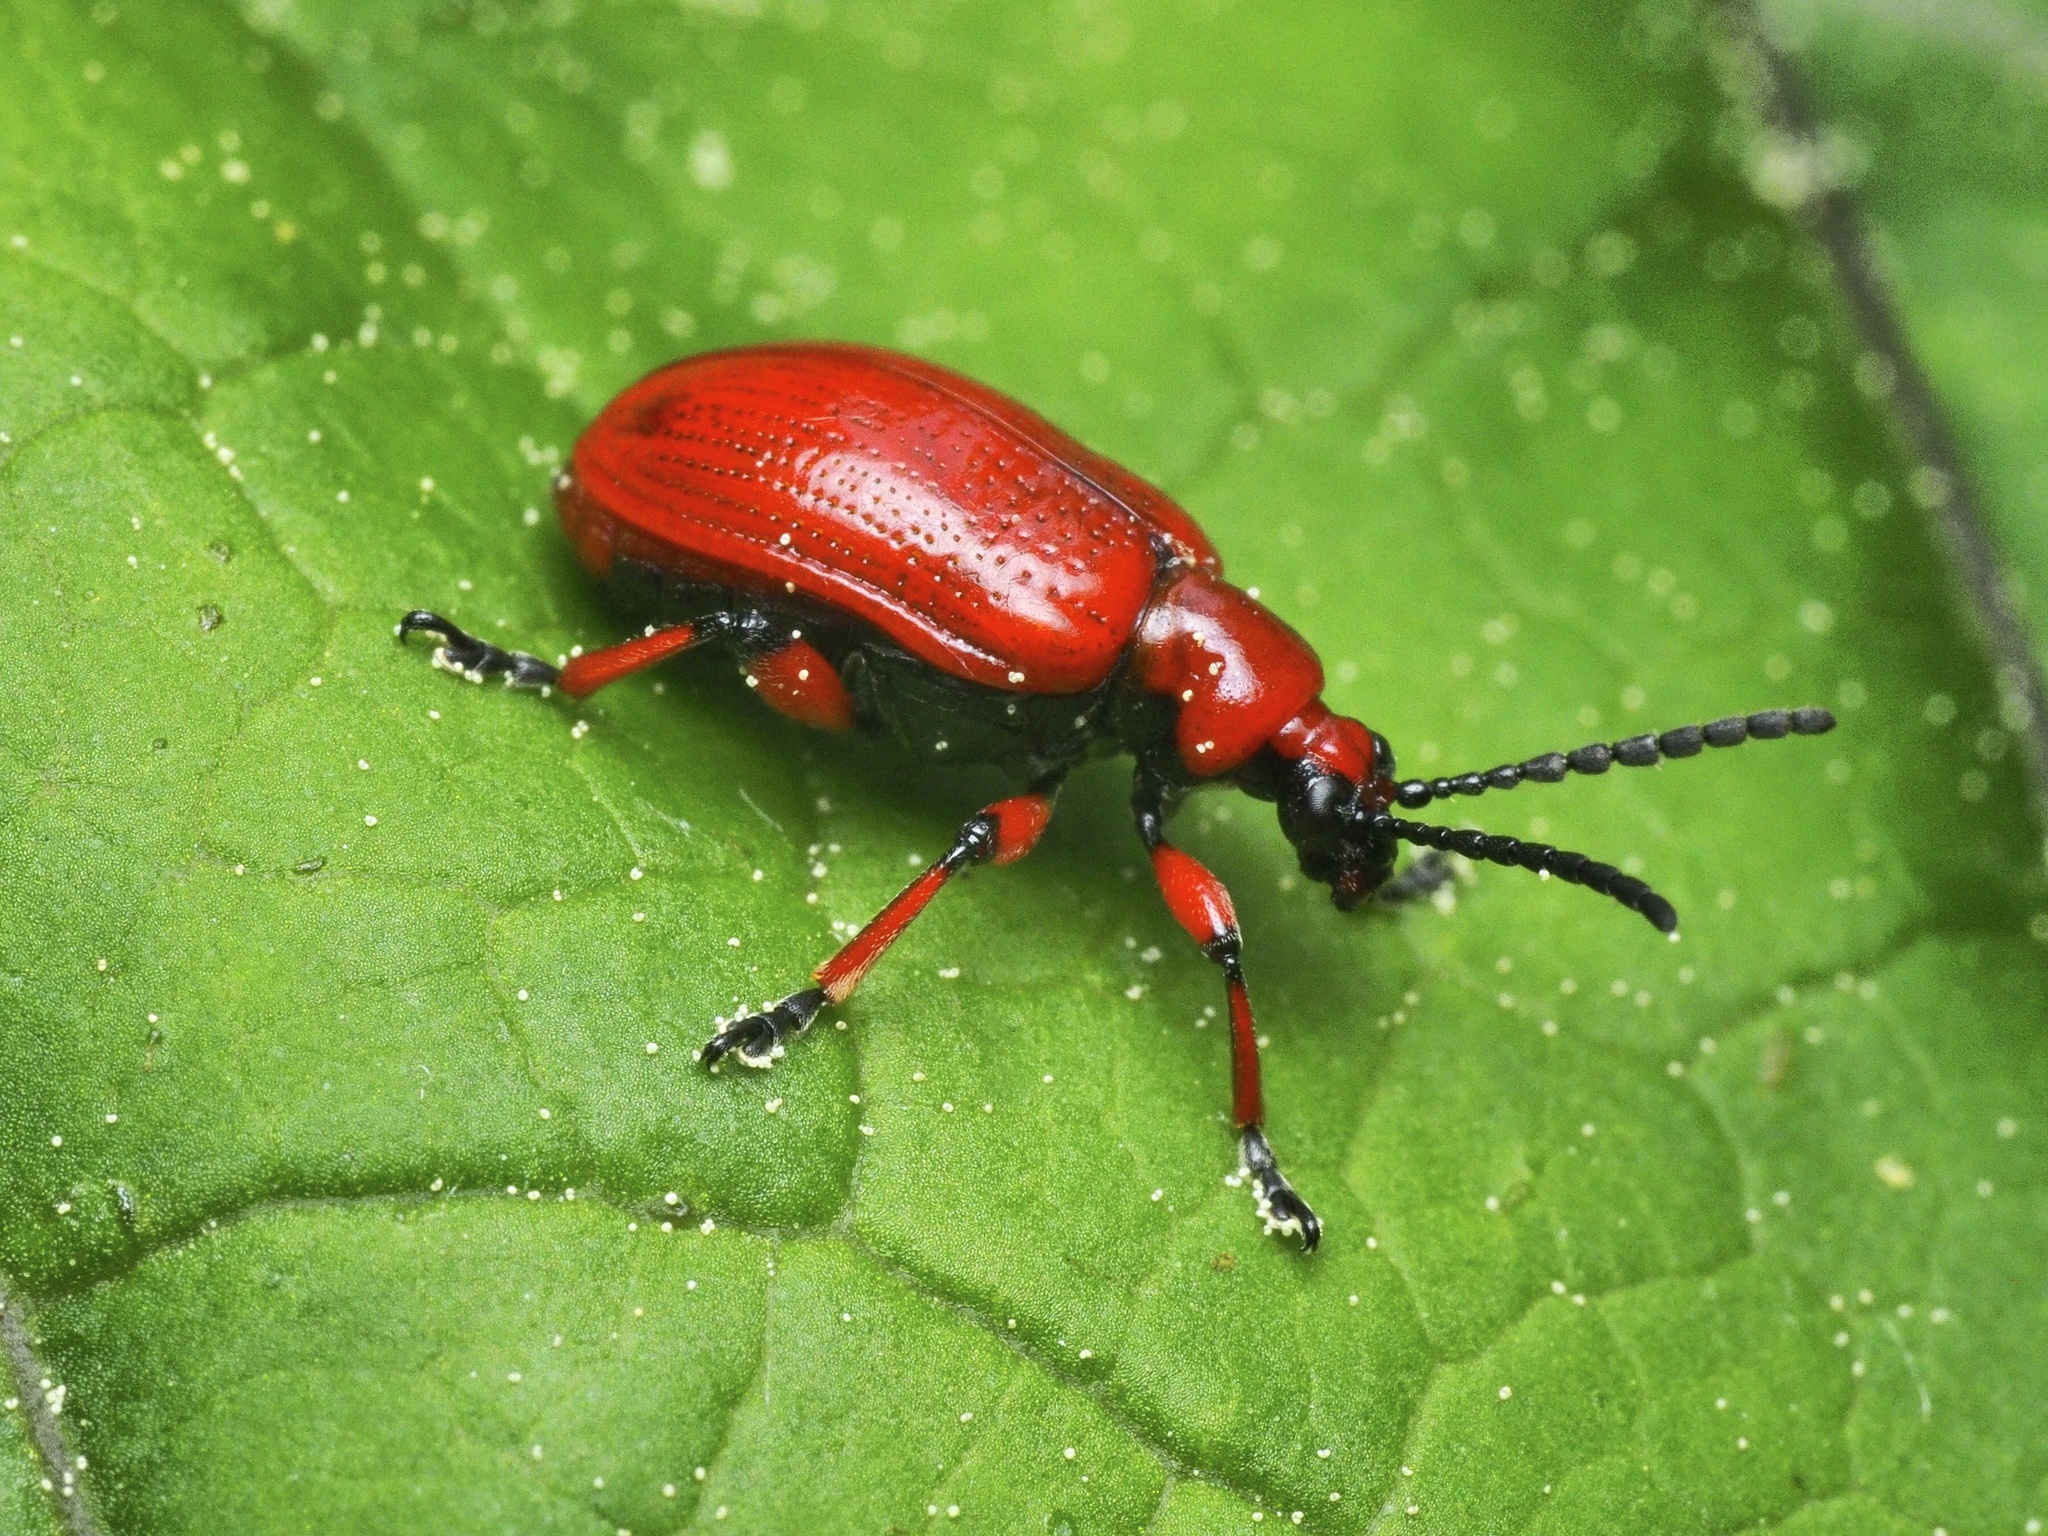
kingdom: Animalia
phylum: Arthropoda
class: Insecta
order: Coleoptera
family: Chrysomelidae
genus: Lilioceris
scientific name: Lilioceris merdigera
